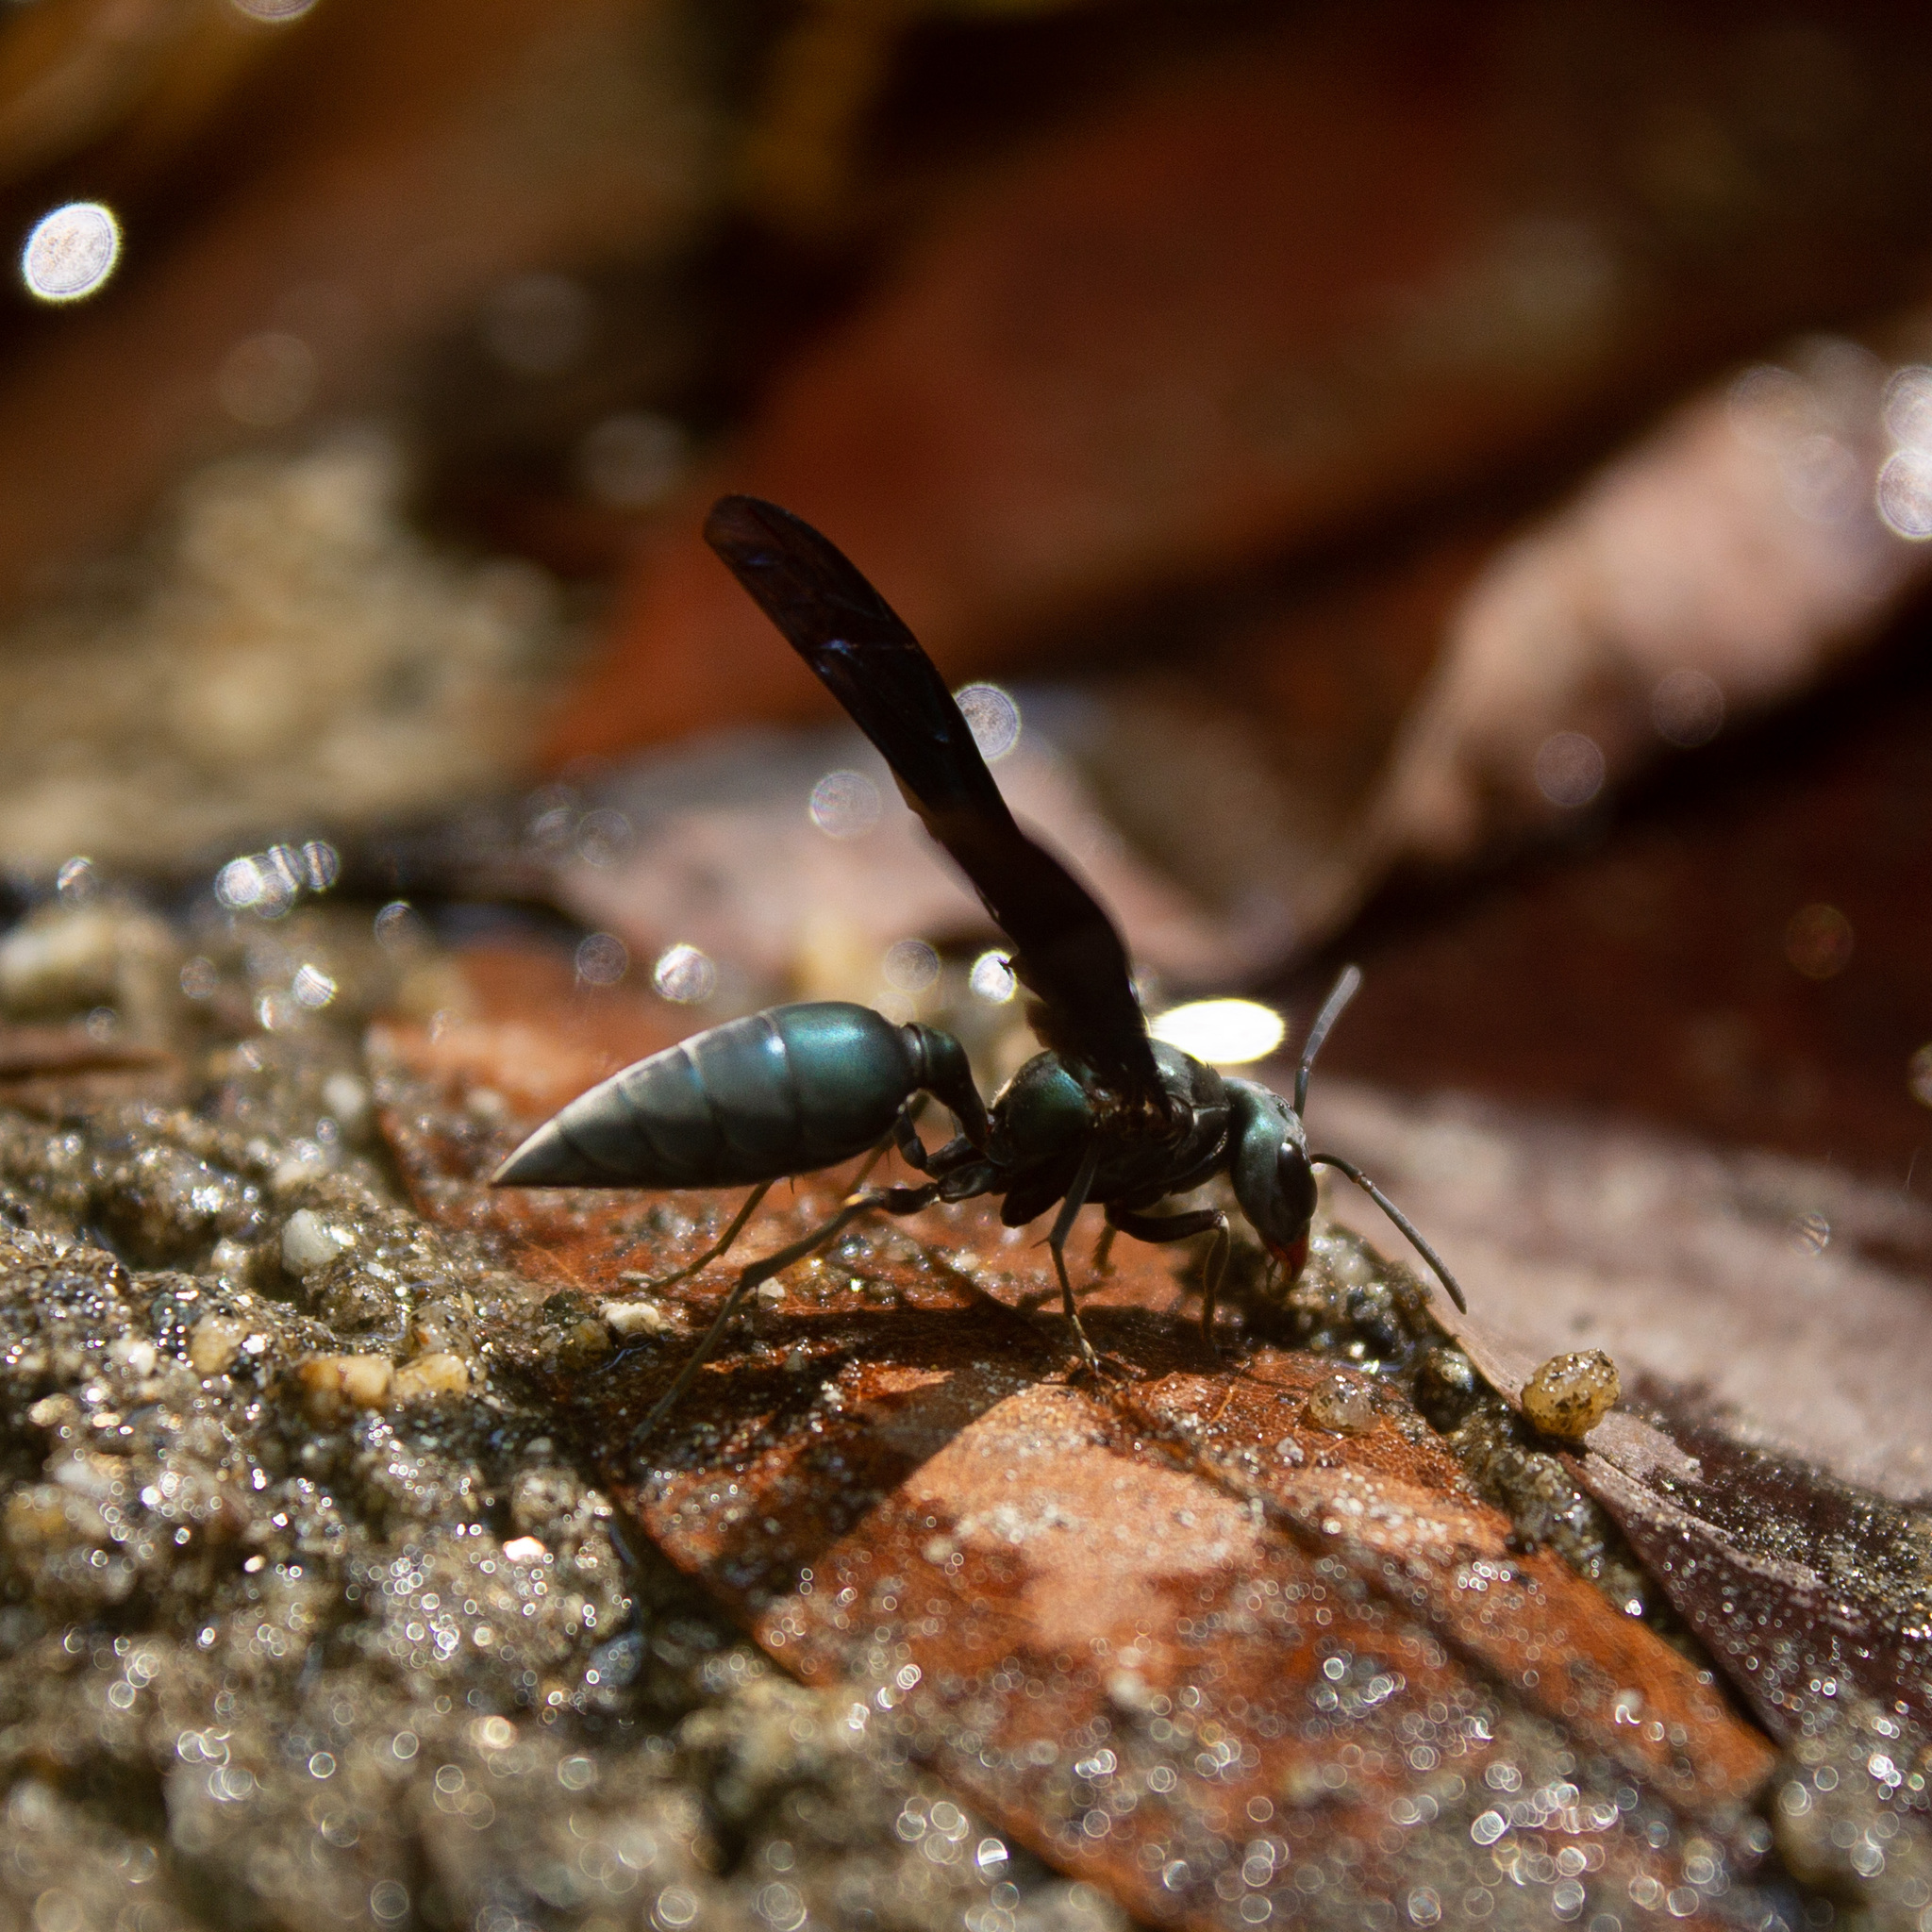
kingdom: Animalia
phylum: Arthropoda
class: Insecta
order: Hymenoptera
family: Vespidae
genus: Synoeca
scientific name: Synoeca septentrionalis
